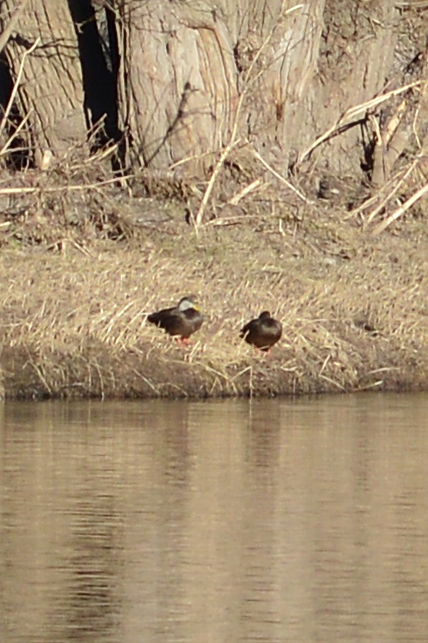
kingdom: Animalia
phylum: Chordata
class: Aves
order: Anseriformes
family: Anatidae
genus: Anas
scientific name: Anas rubripes
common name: American black duck
